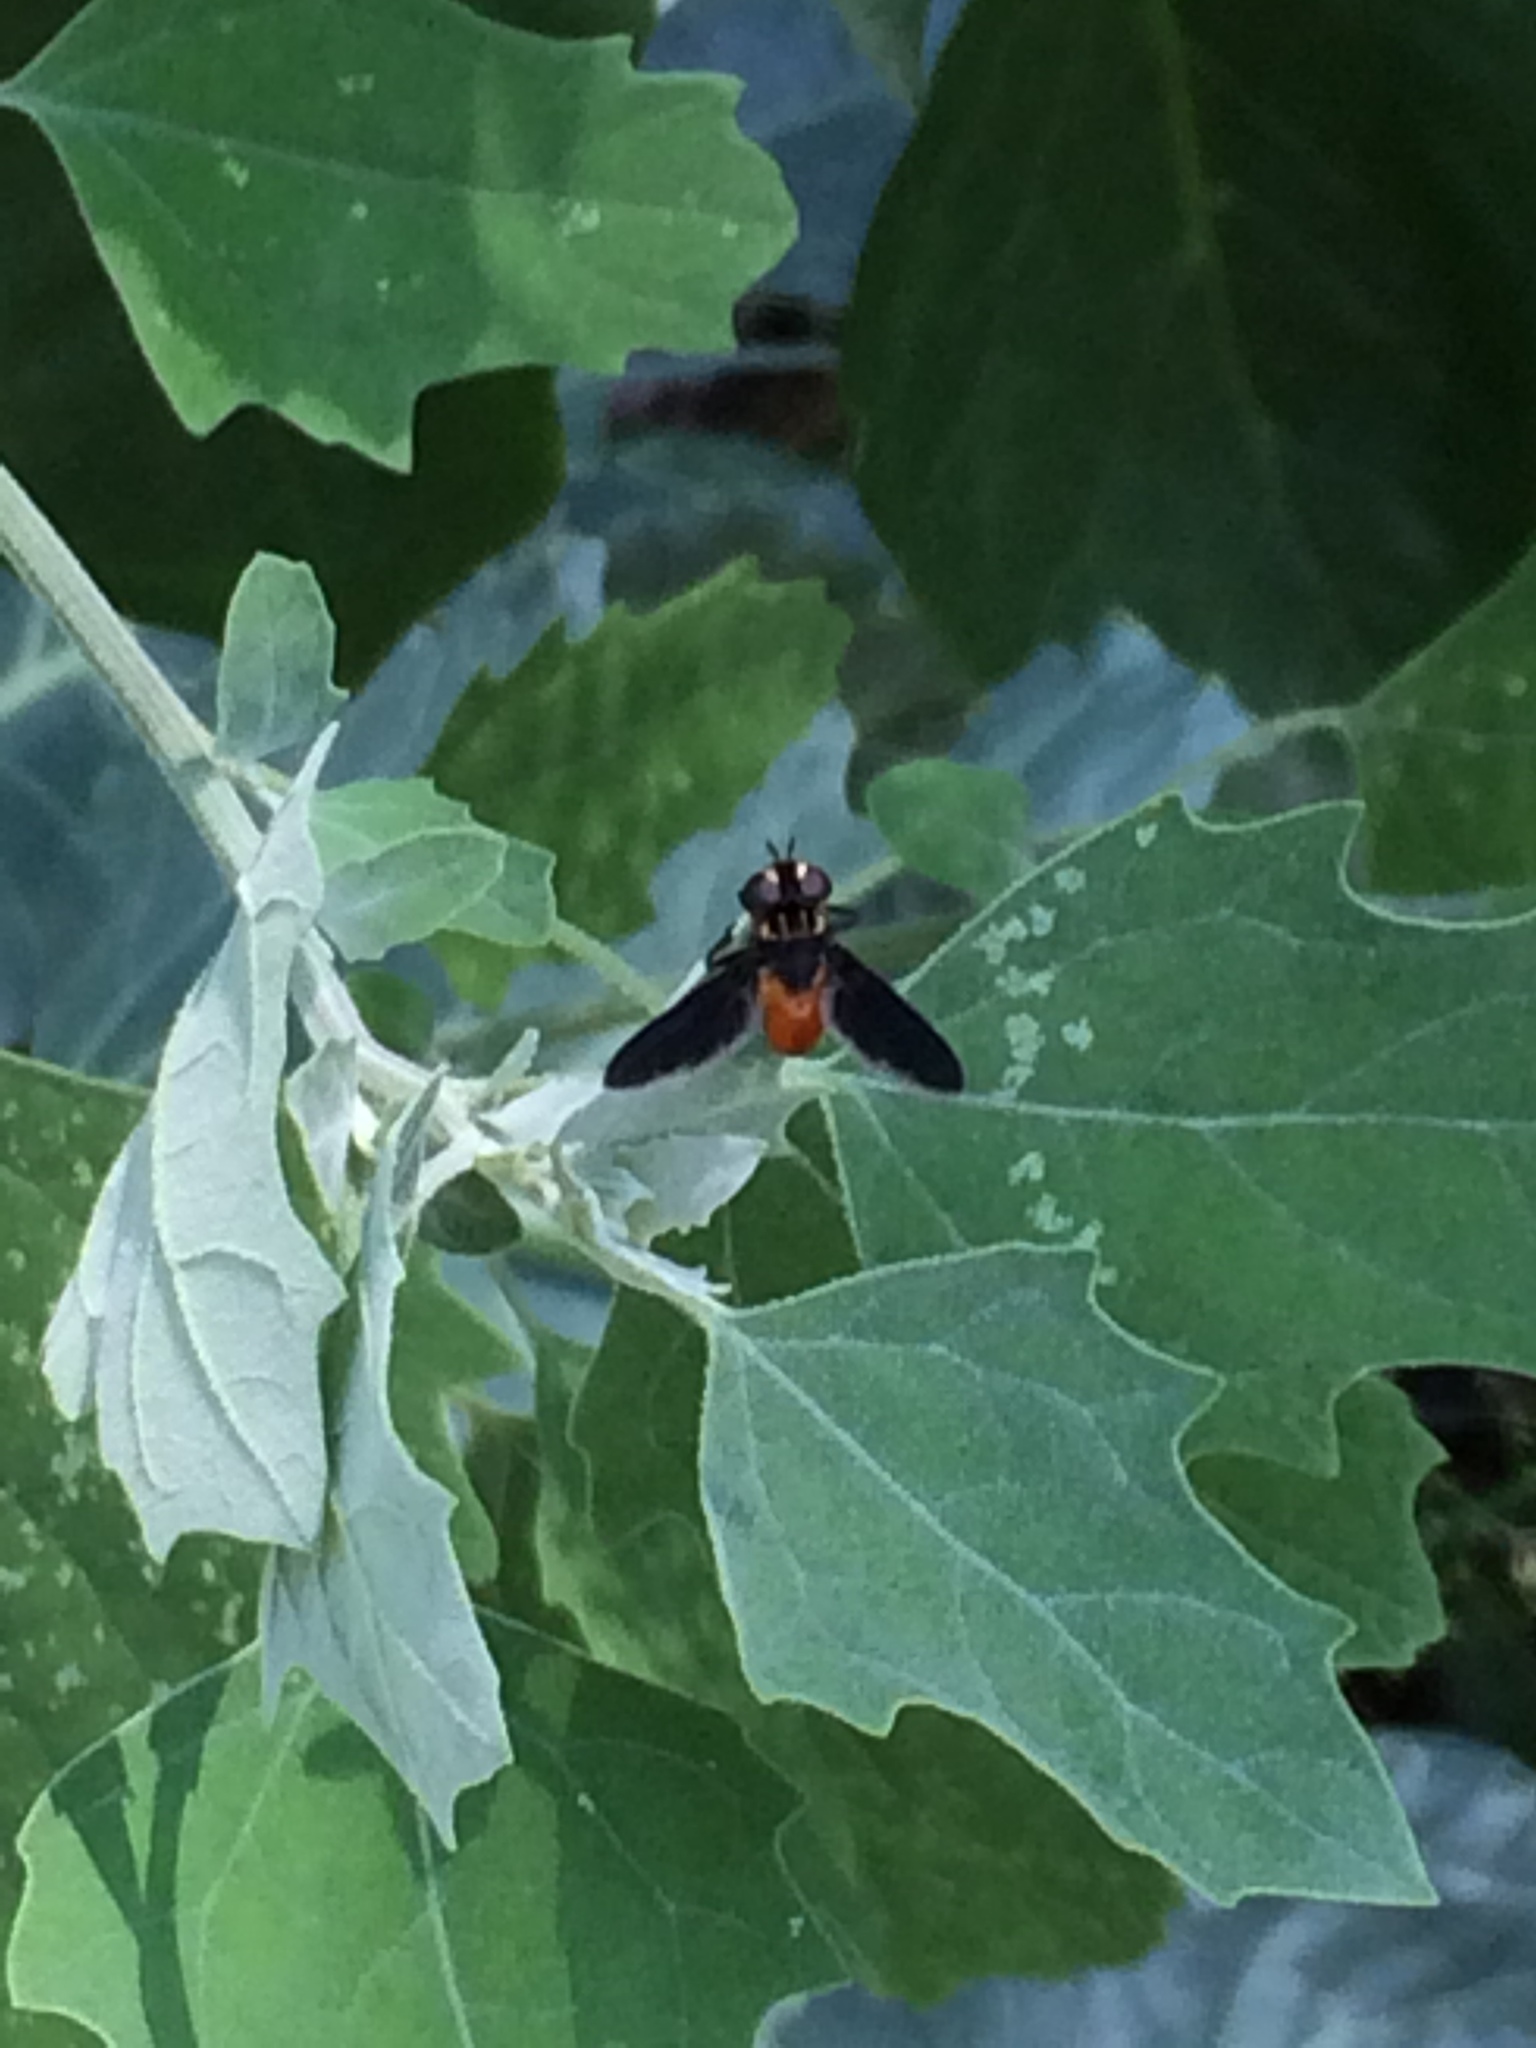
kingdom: Animalia
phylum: Arthropoda
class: Insecta
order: Diptera
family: Tachinidae
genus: Trichopoda
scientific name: Trichopoda pennipes
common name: Tachinid fly
